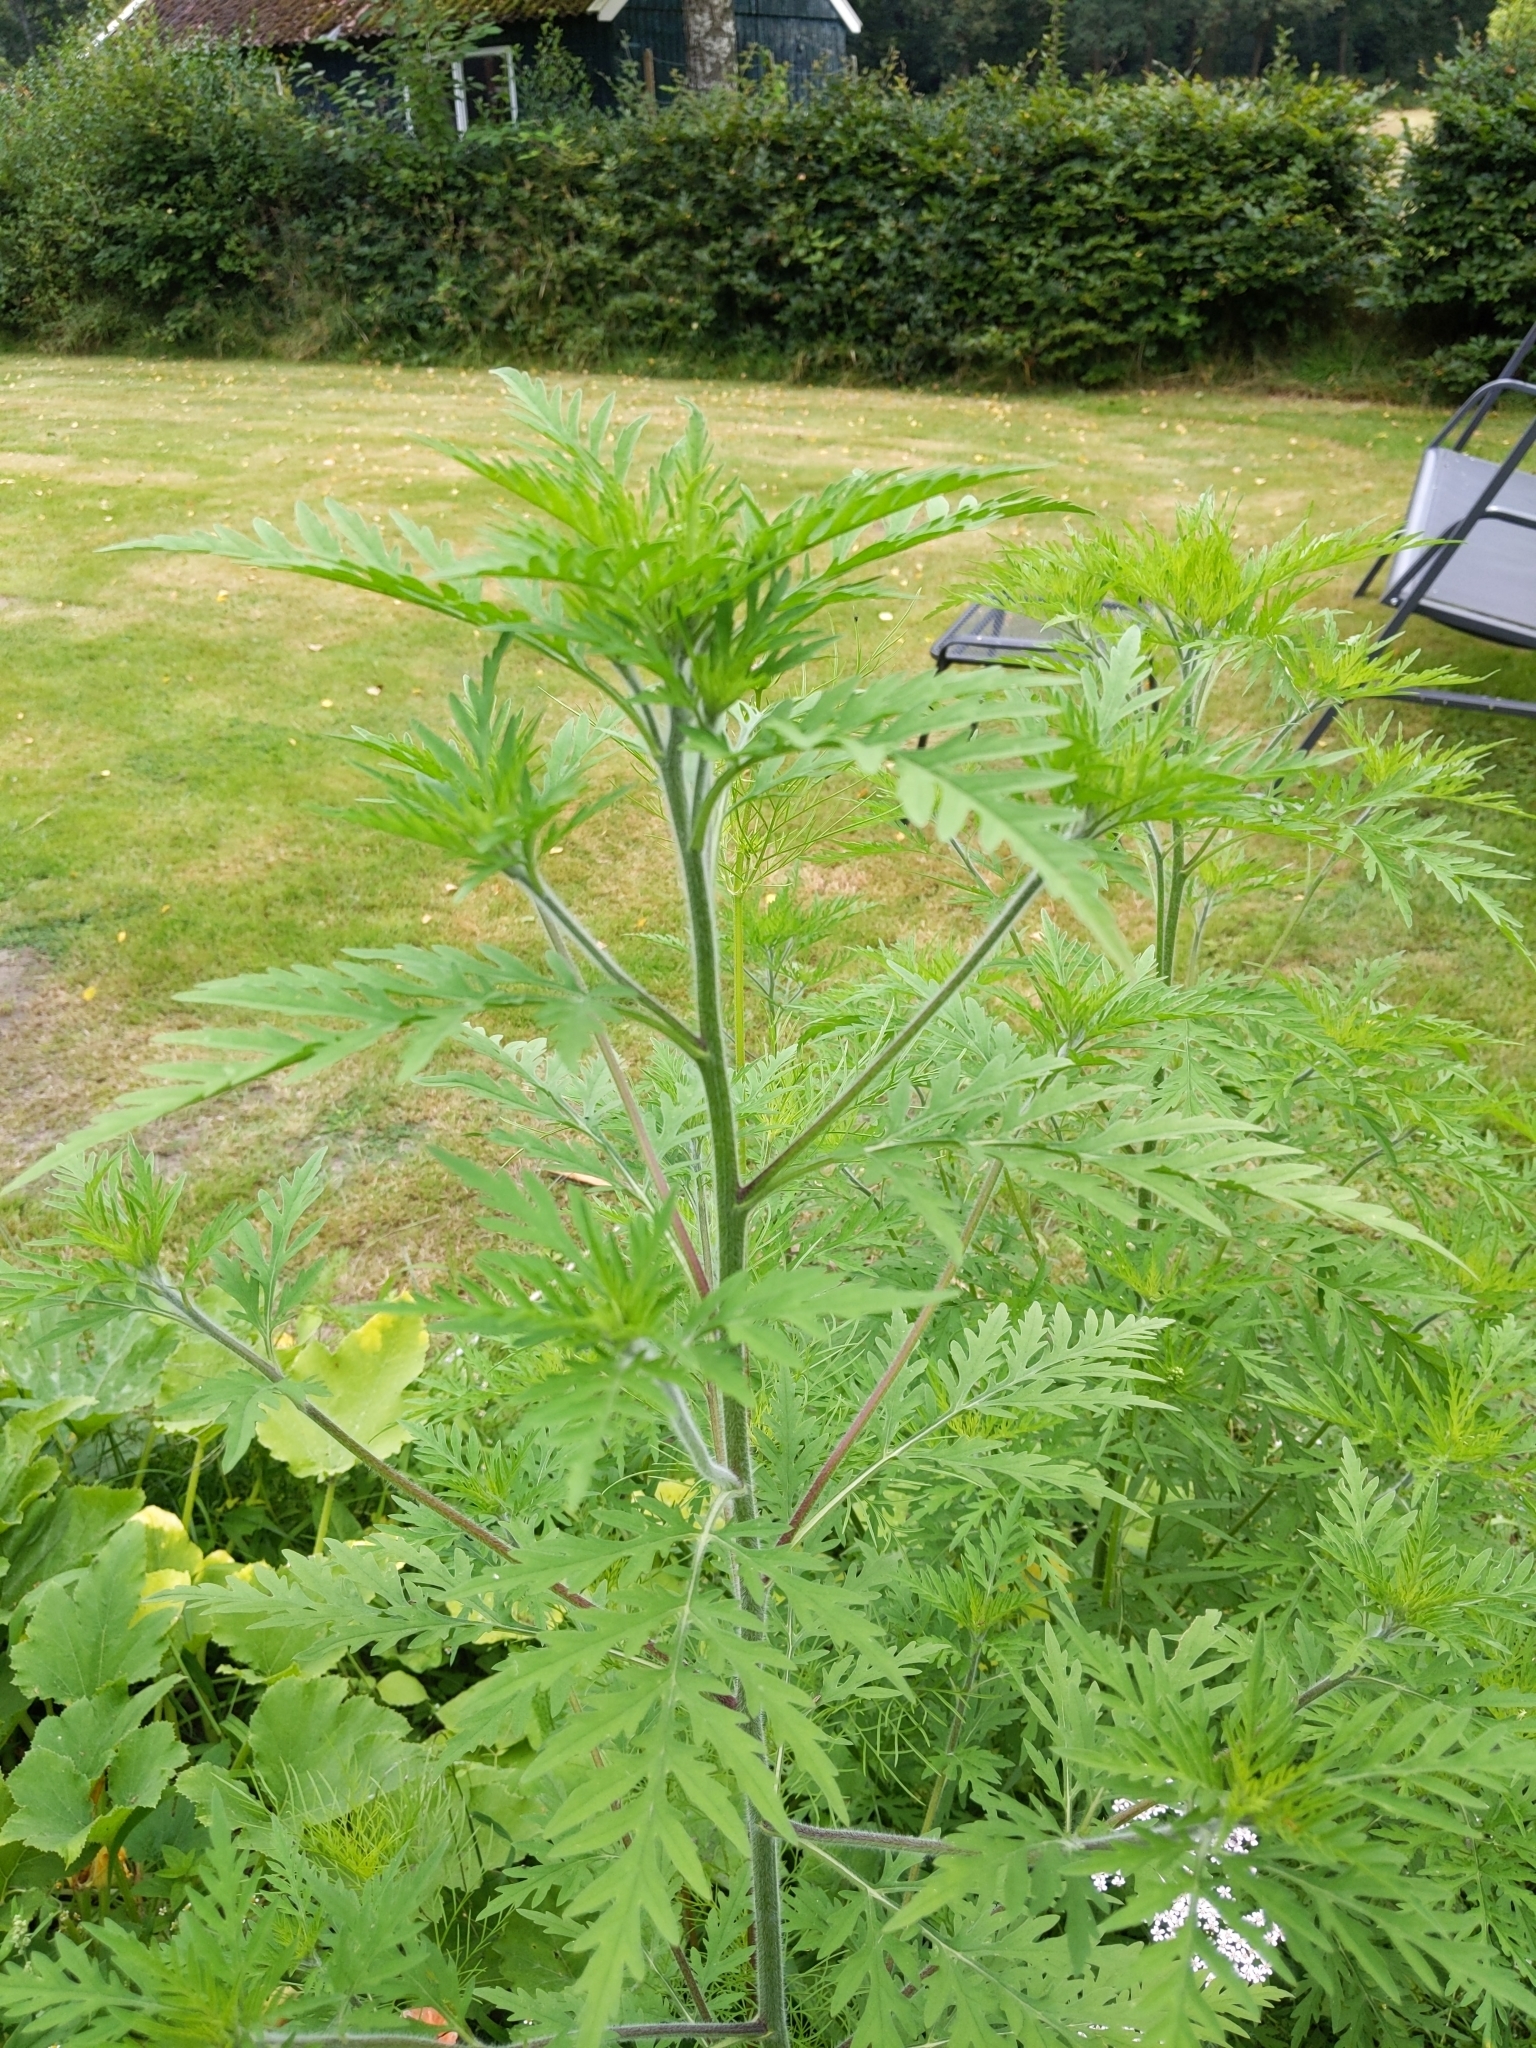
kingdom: Plantae
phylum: Tracheophyta
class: Magnoliopsida
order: Asterales
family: Asteraceae
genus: Ambrosia
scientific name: Ambrosia artemisiifolia
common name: Annual ragweed
